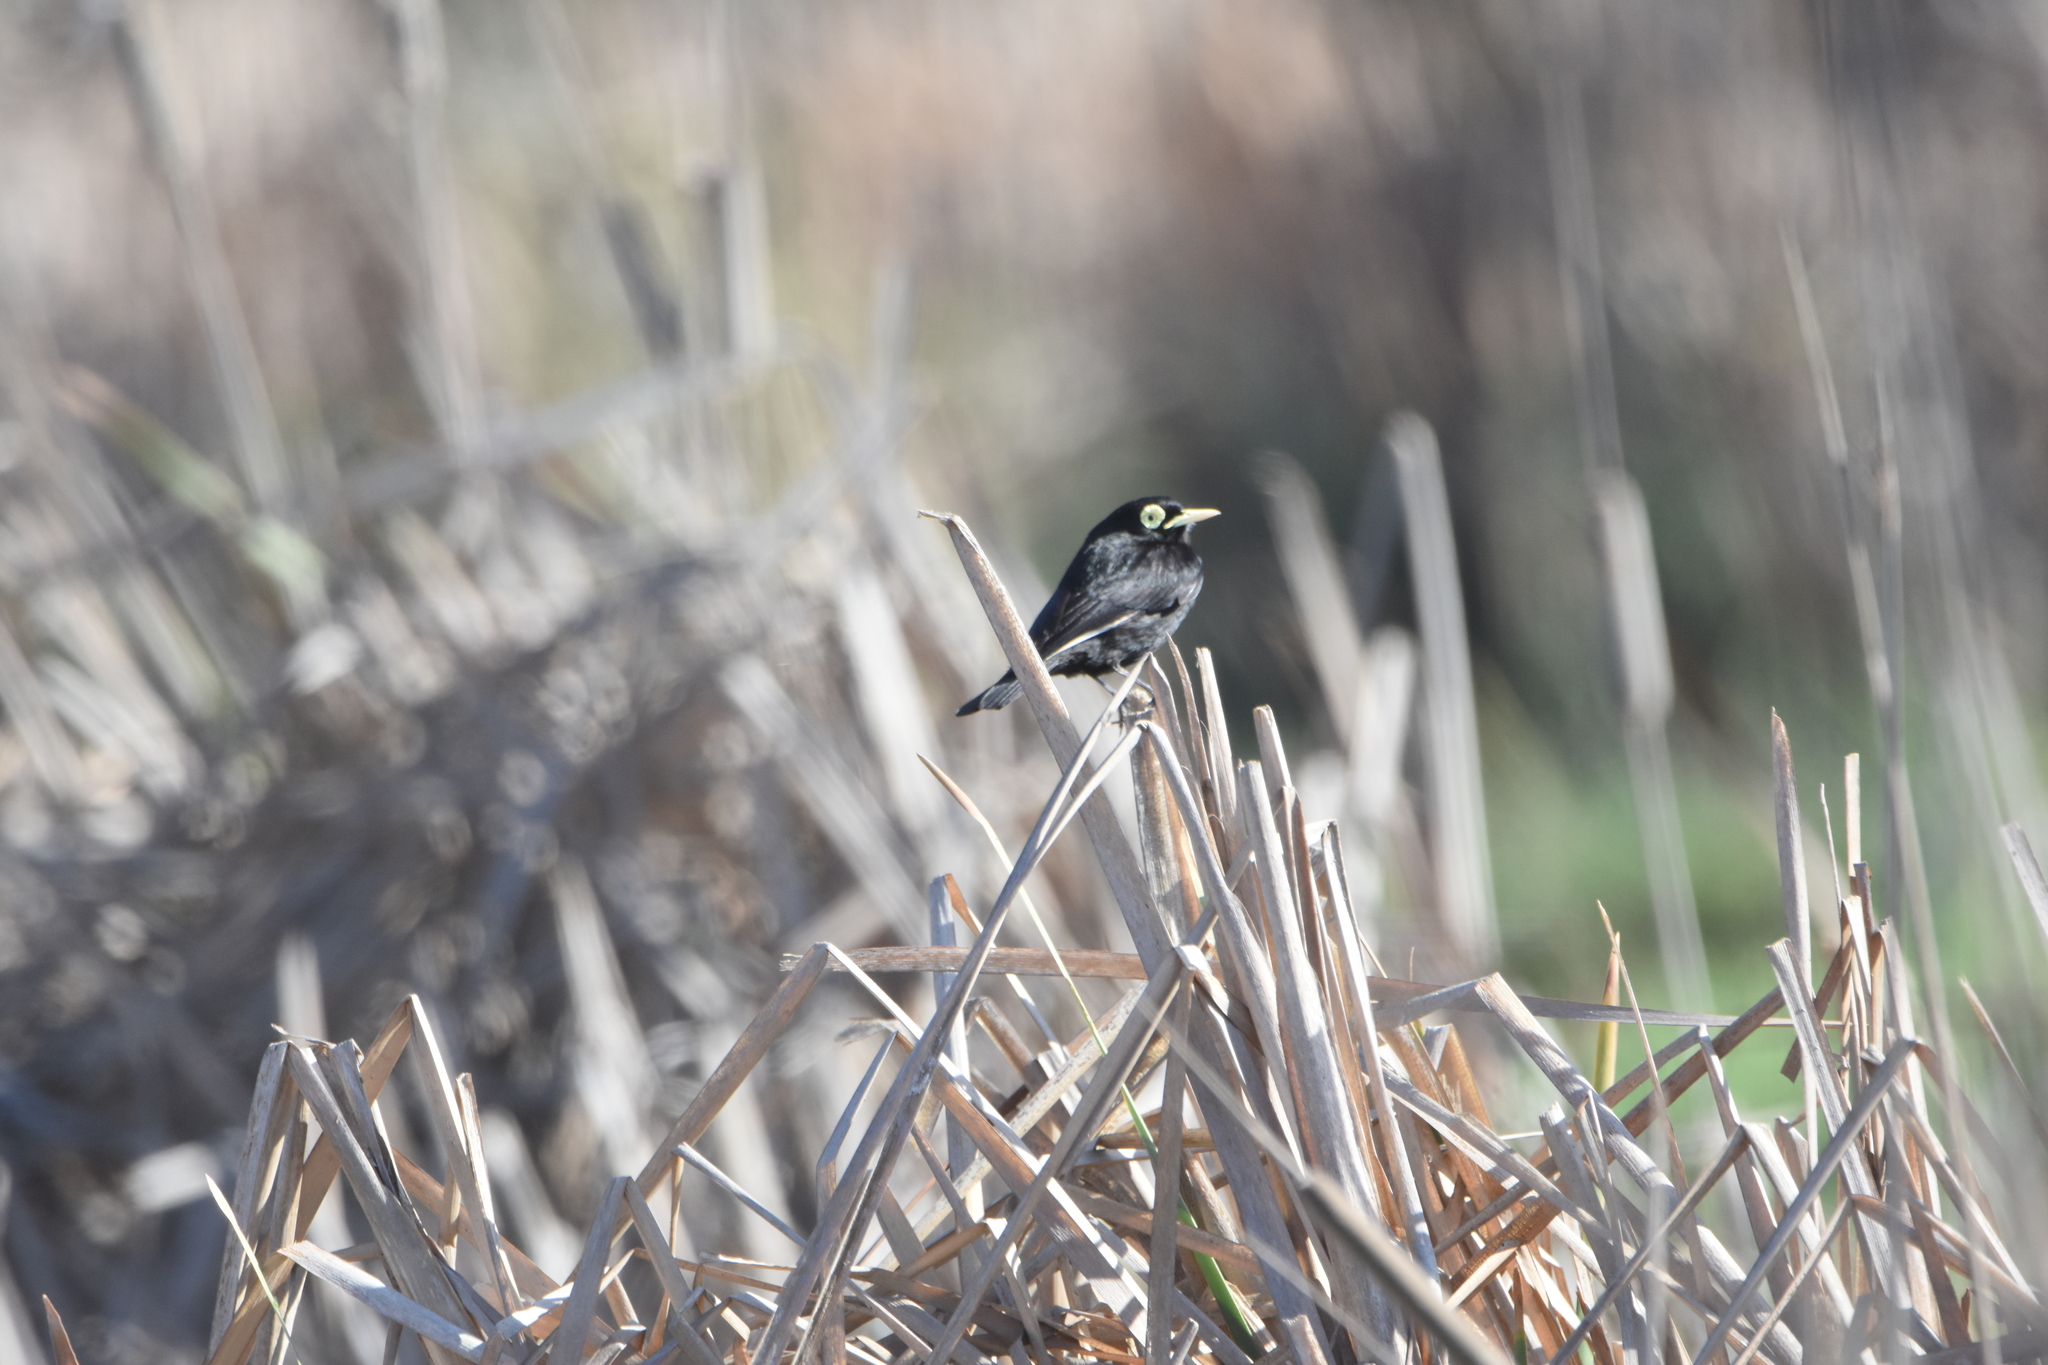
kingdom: Animalia
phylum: Chordata
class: Aves
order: Passeriformes
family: Tyrannidae
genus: Hymenops
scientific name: Hymenops perspicillatus
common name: Spectacled tyrant
